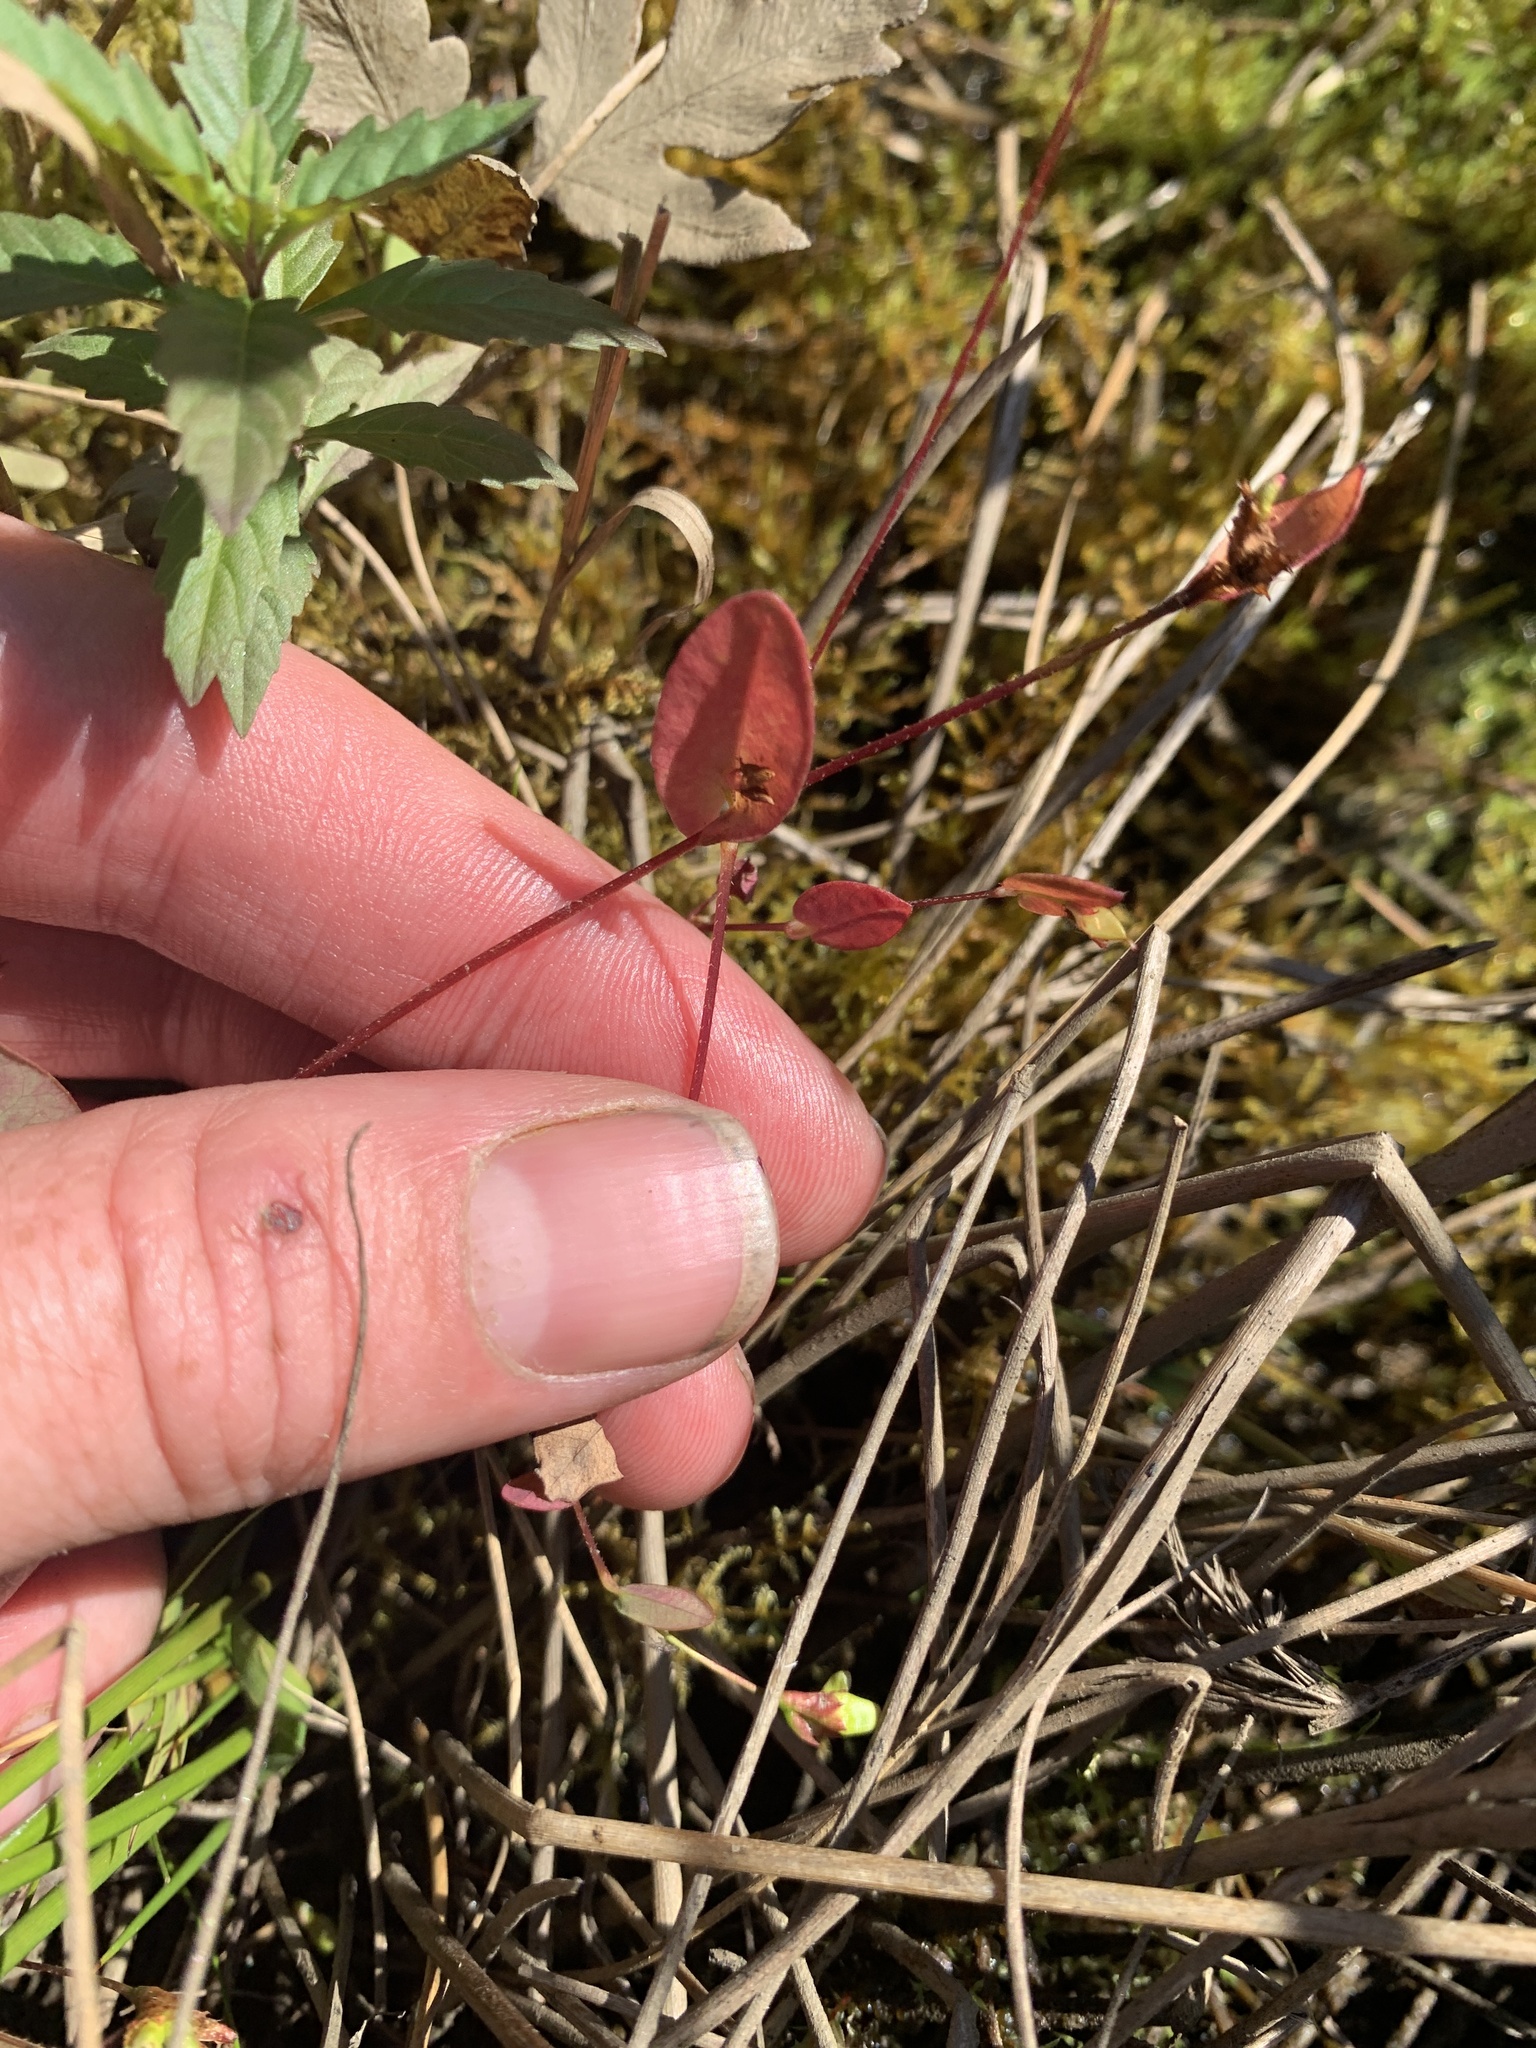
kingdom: Plantae
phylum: Tracheophyta
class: Magnoliopsida
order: Caryophyllales
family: Polygonaceae
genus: Persicaria
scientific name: Persicaria sagittata
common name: American tearthumb
